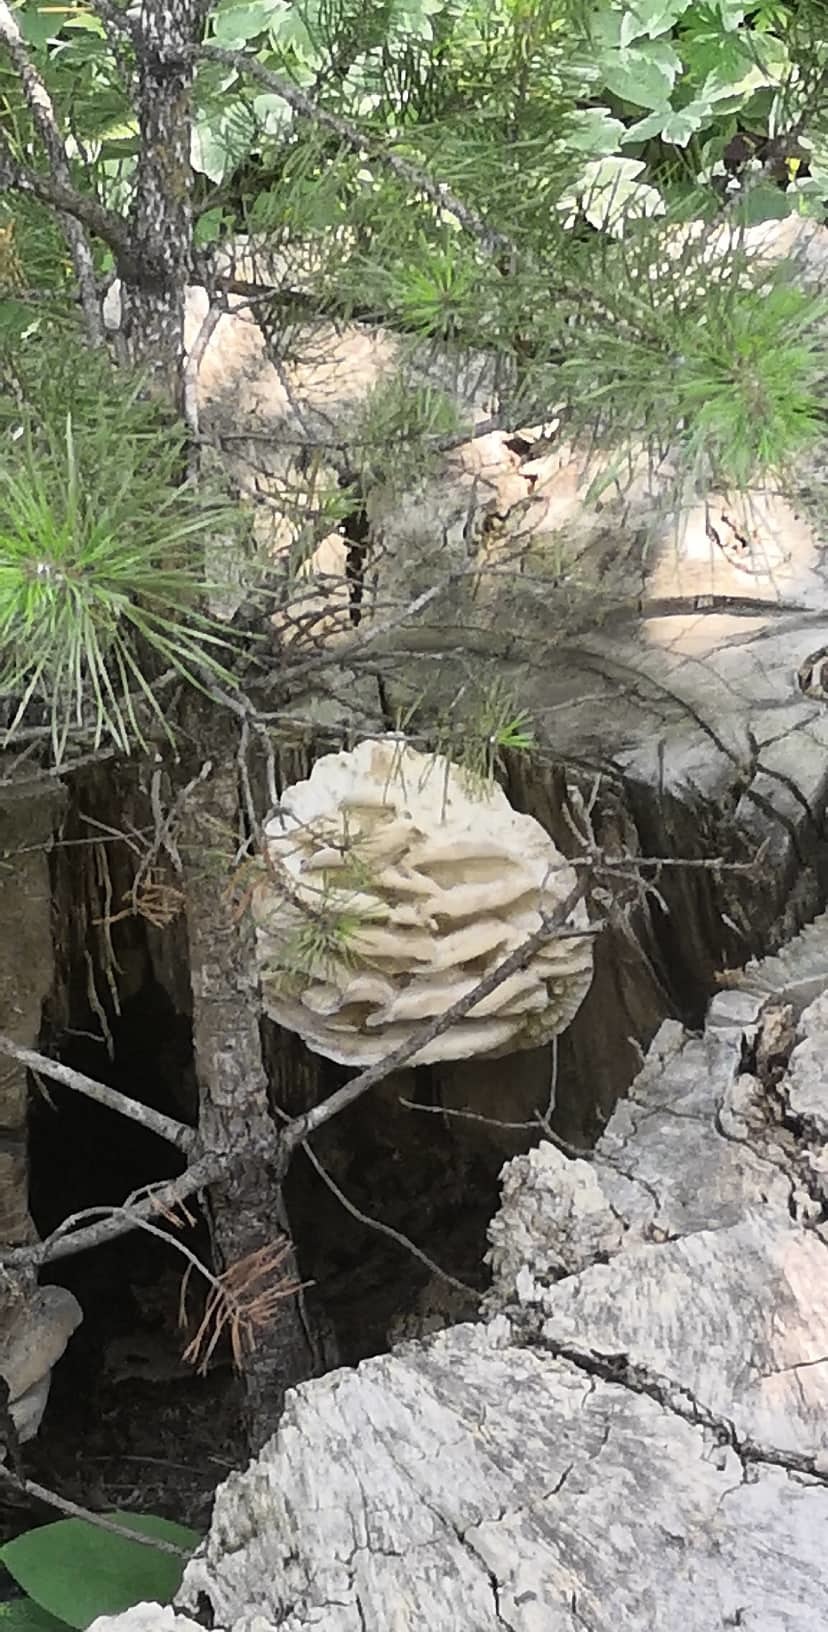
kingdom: Fungi
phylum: Basidiomycota
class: Agaricomycetes
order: Polyporales
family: Meruliaceae
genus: Climacodon
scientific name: Climacodon septentrionalis
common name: Northern tooth
